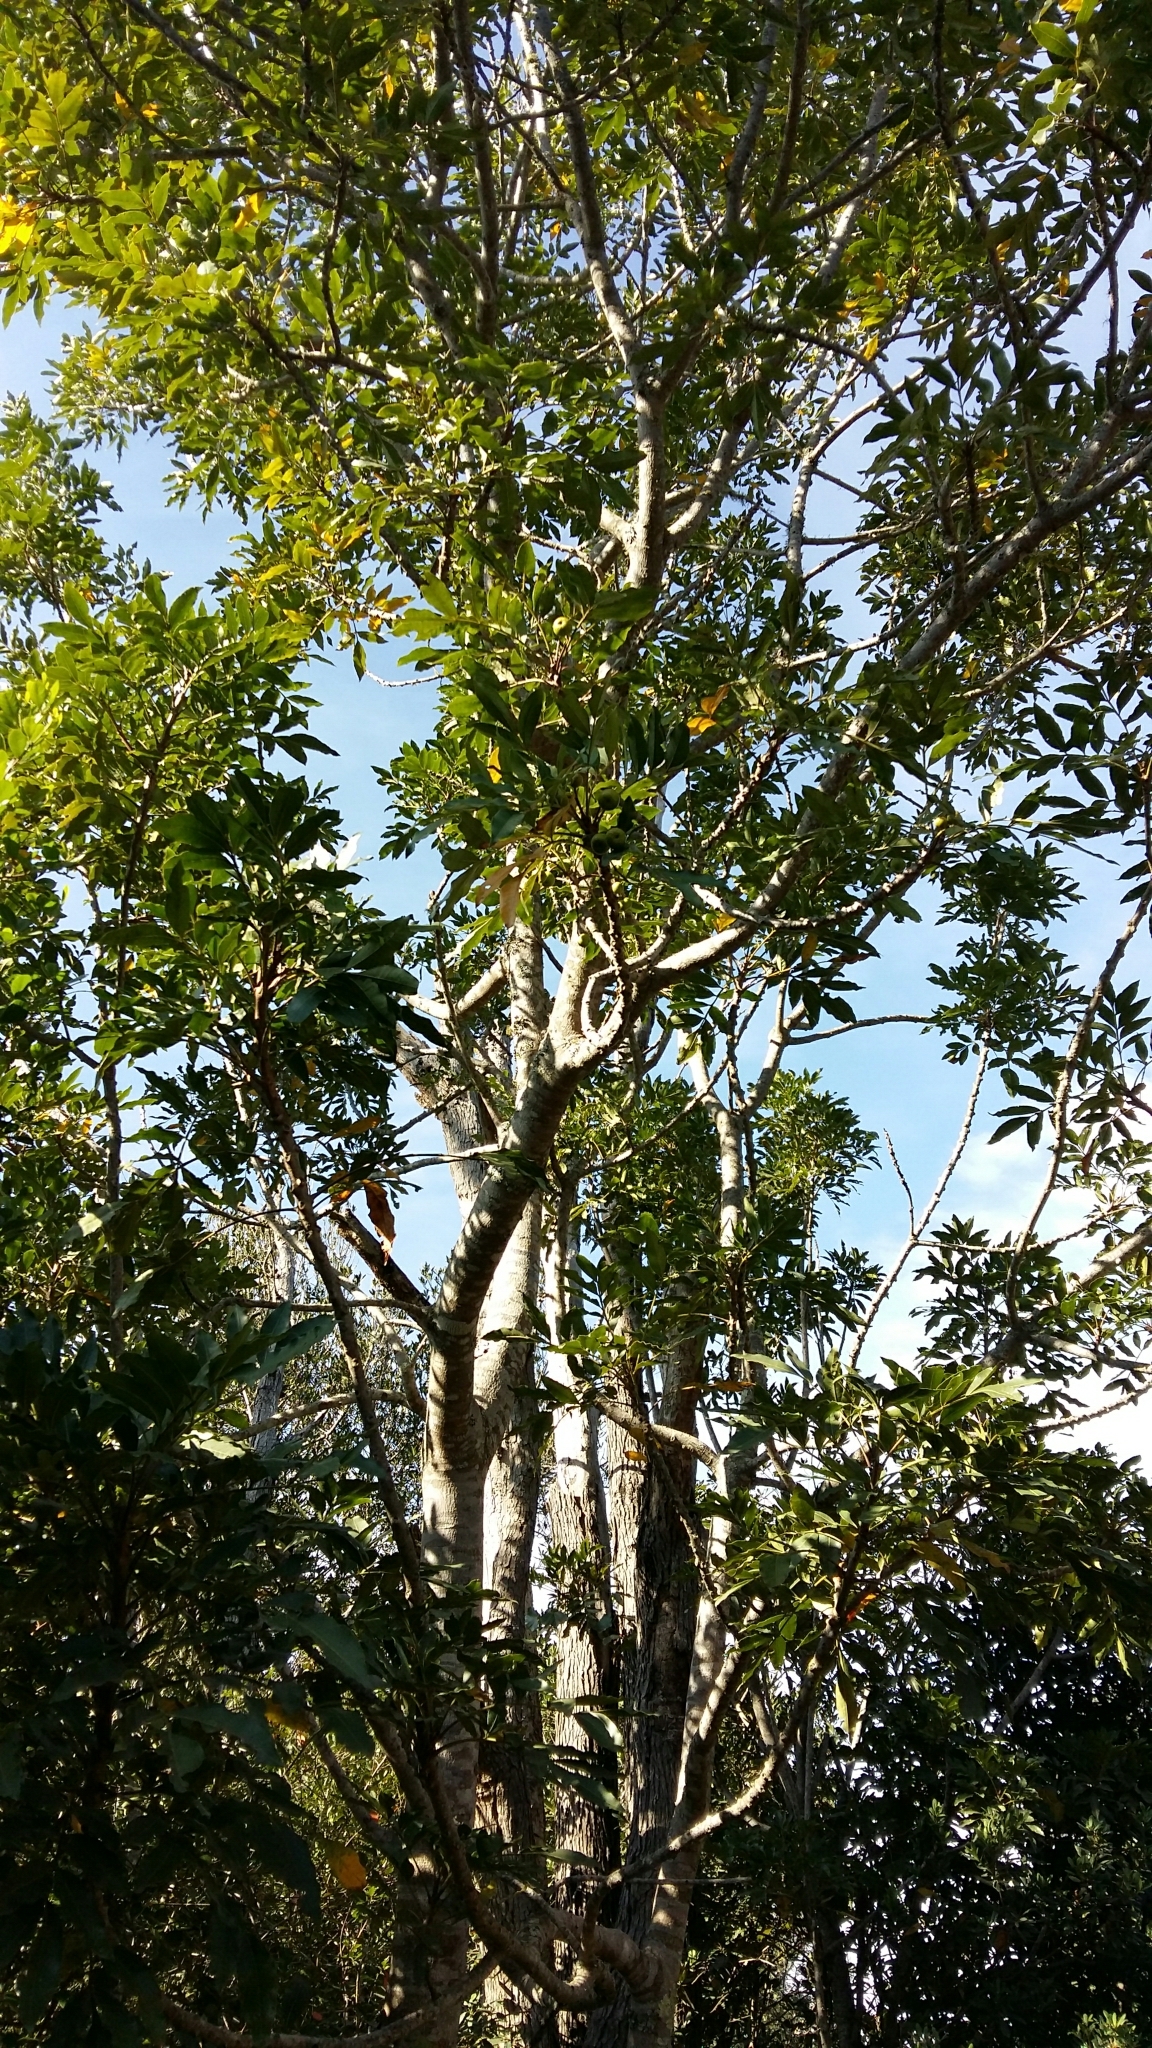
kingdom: Plantae
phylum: Tracheophyta
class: Magnoliopsida
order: Sapindales
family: Meliaceae
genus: Ekebergia
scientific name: Ekebergia capensis
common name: Cape-ash
